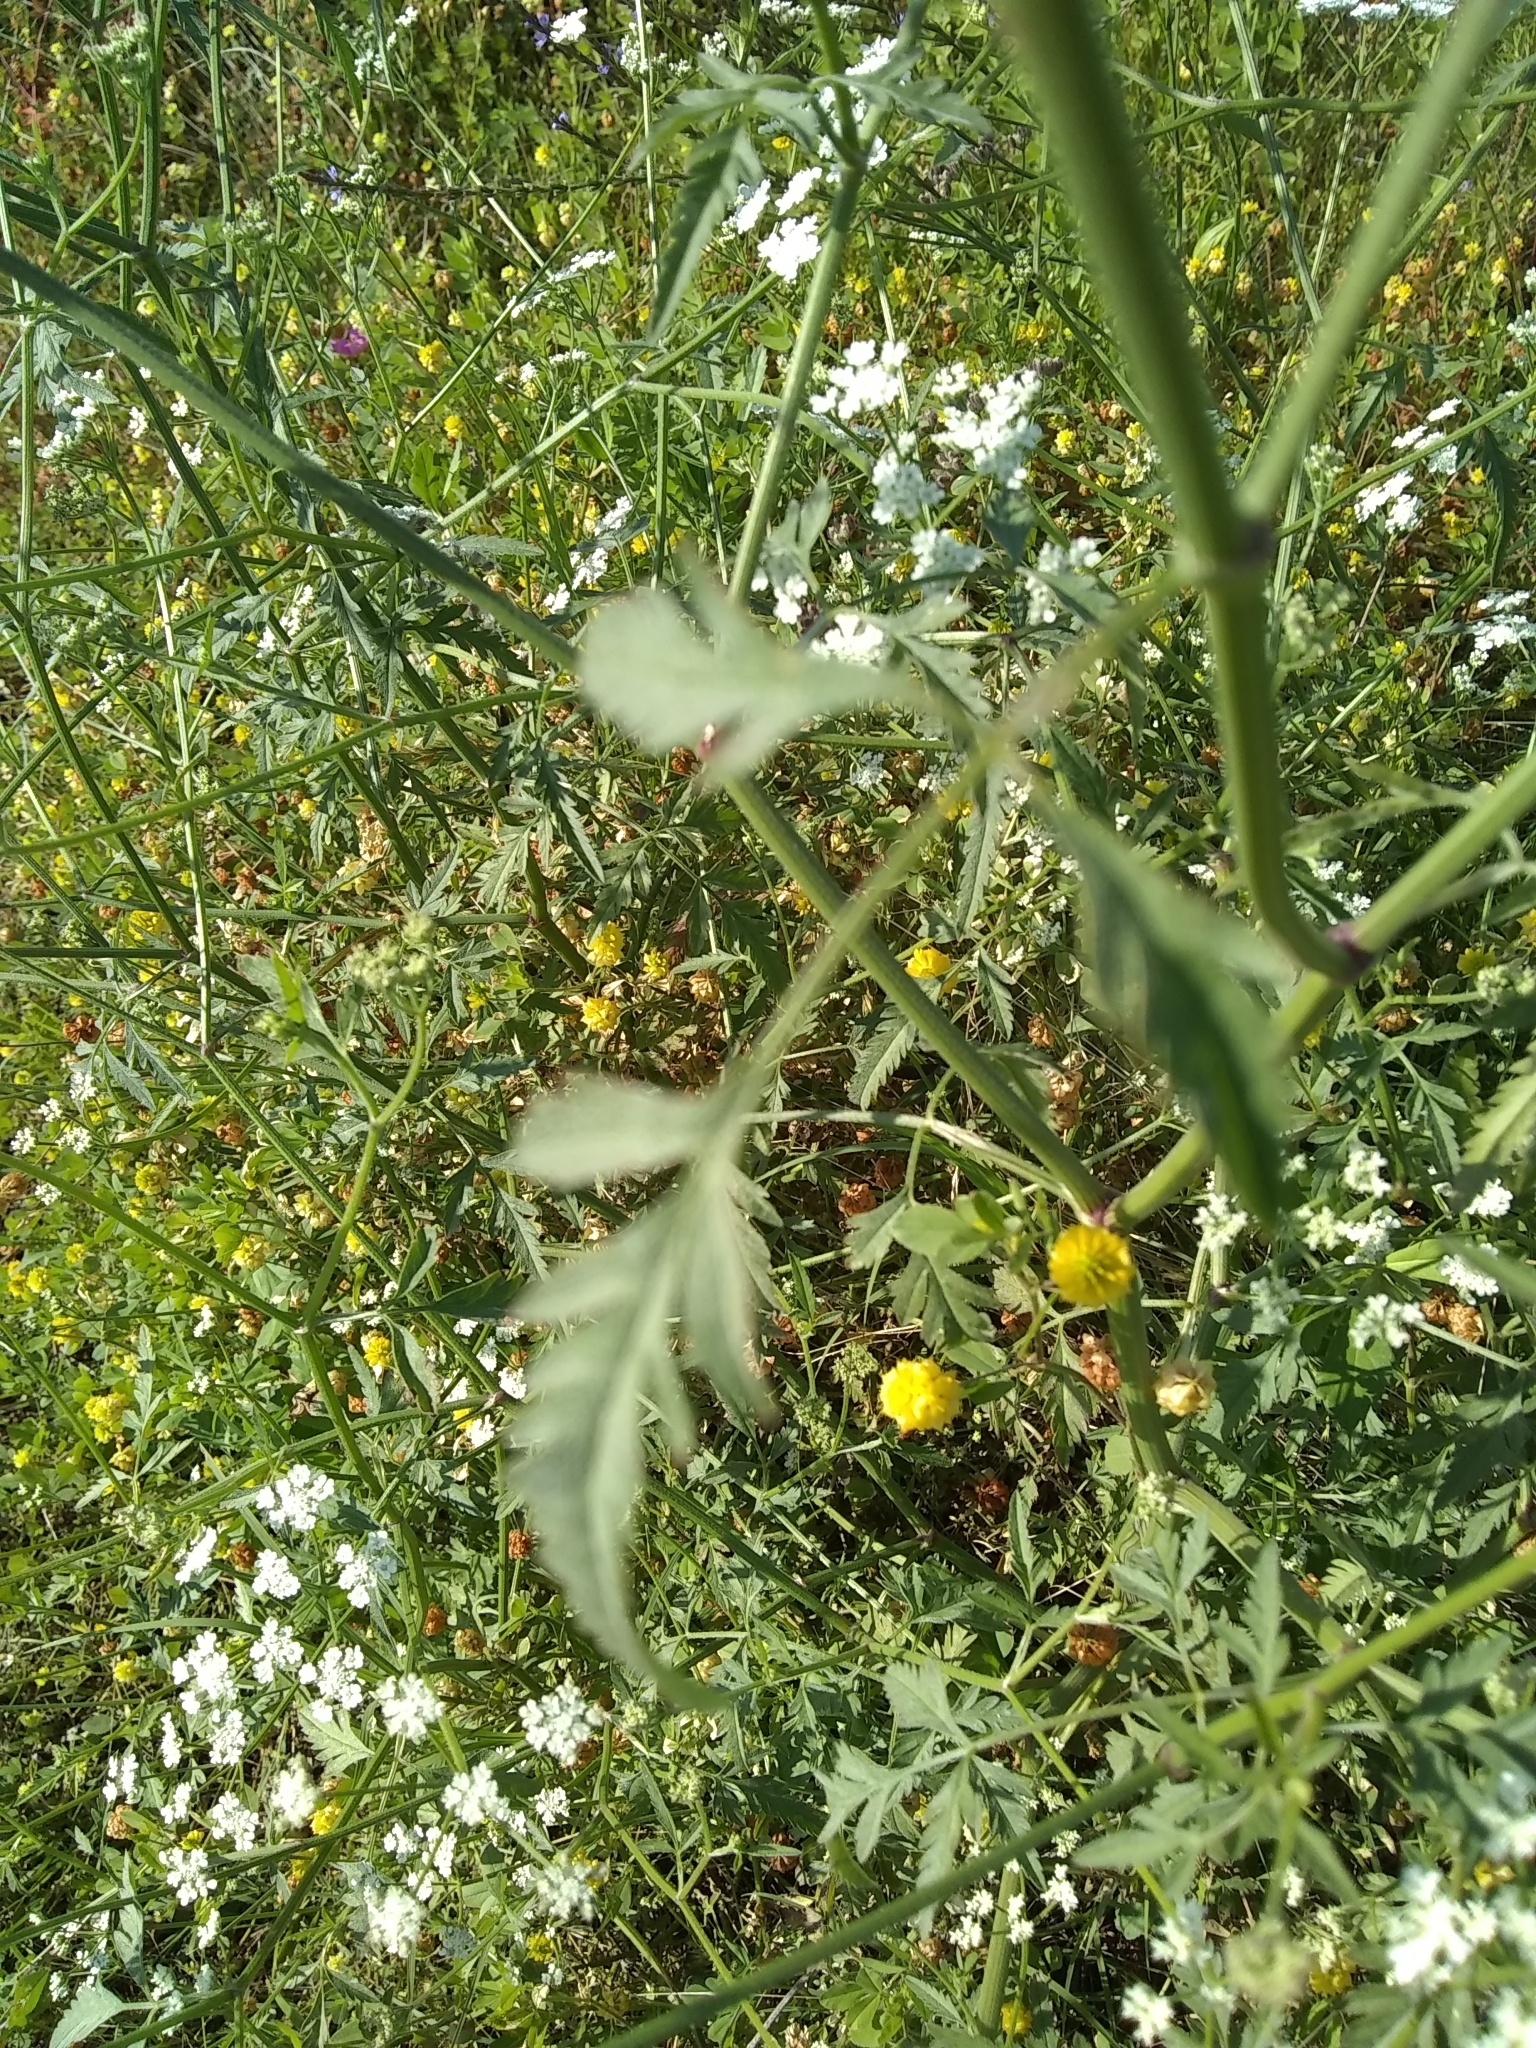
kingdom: Plantae
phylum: Tracheophyta
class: Magnoliopsida
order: Apiales
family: Apiaceae
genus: Torilis
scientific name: Torilis arvensis
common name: Spreading hedge-parsley
